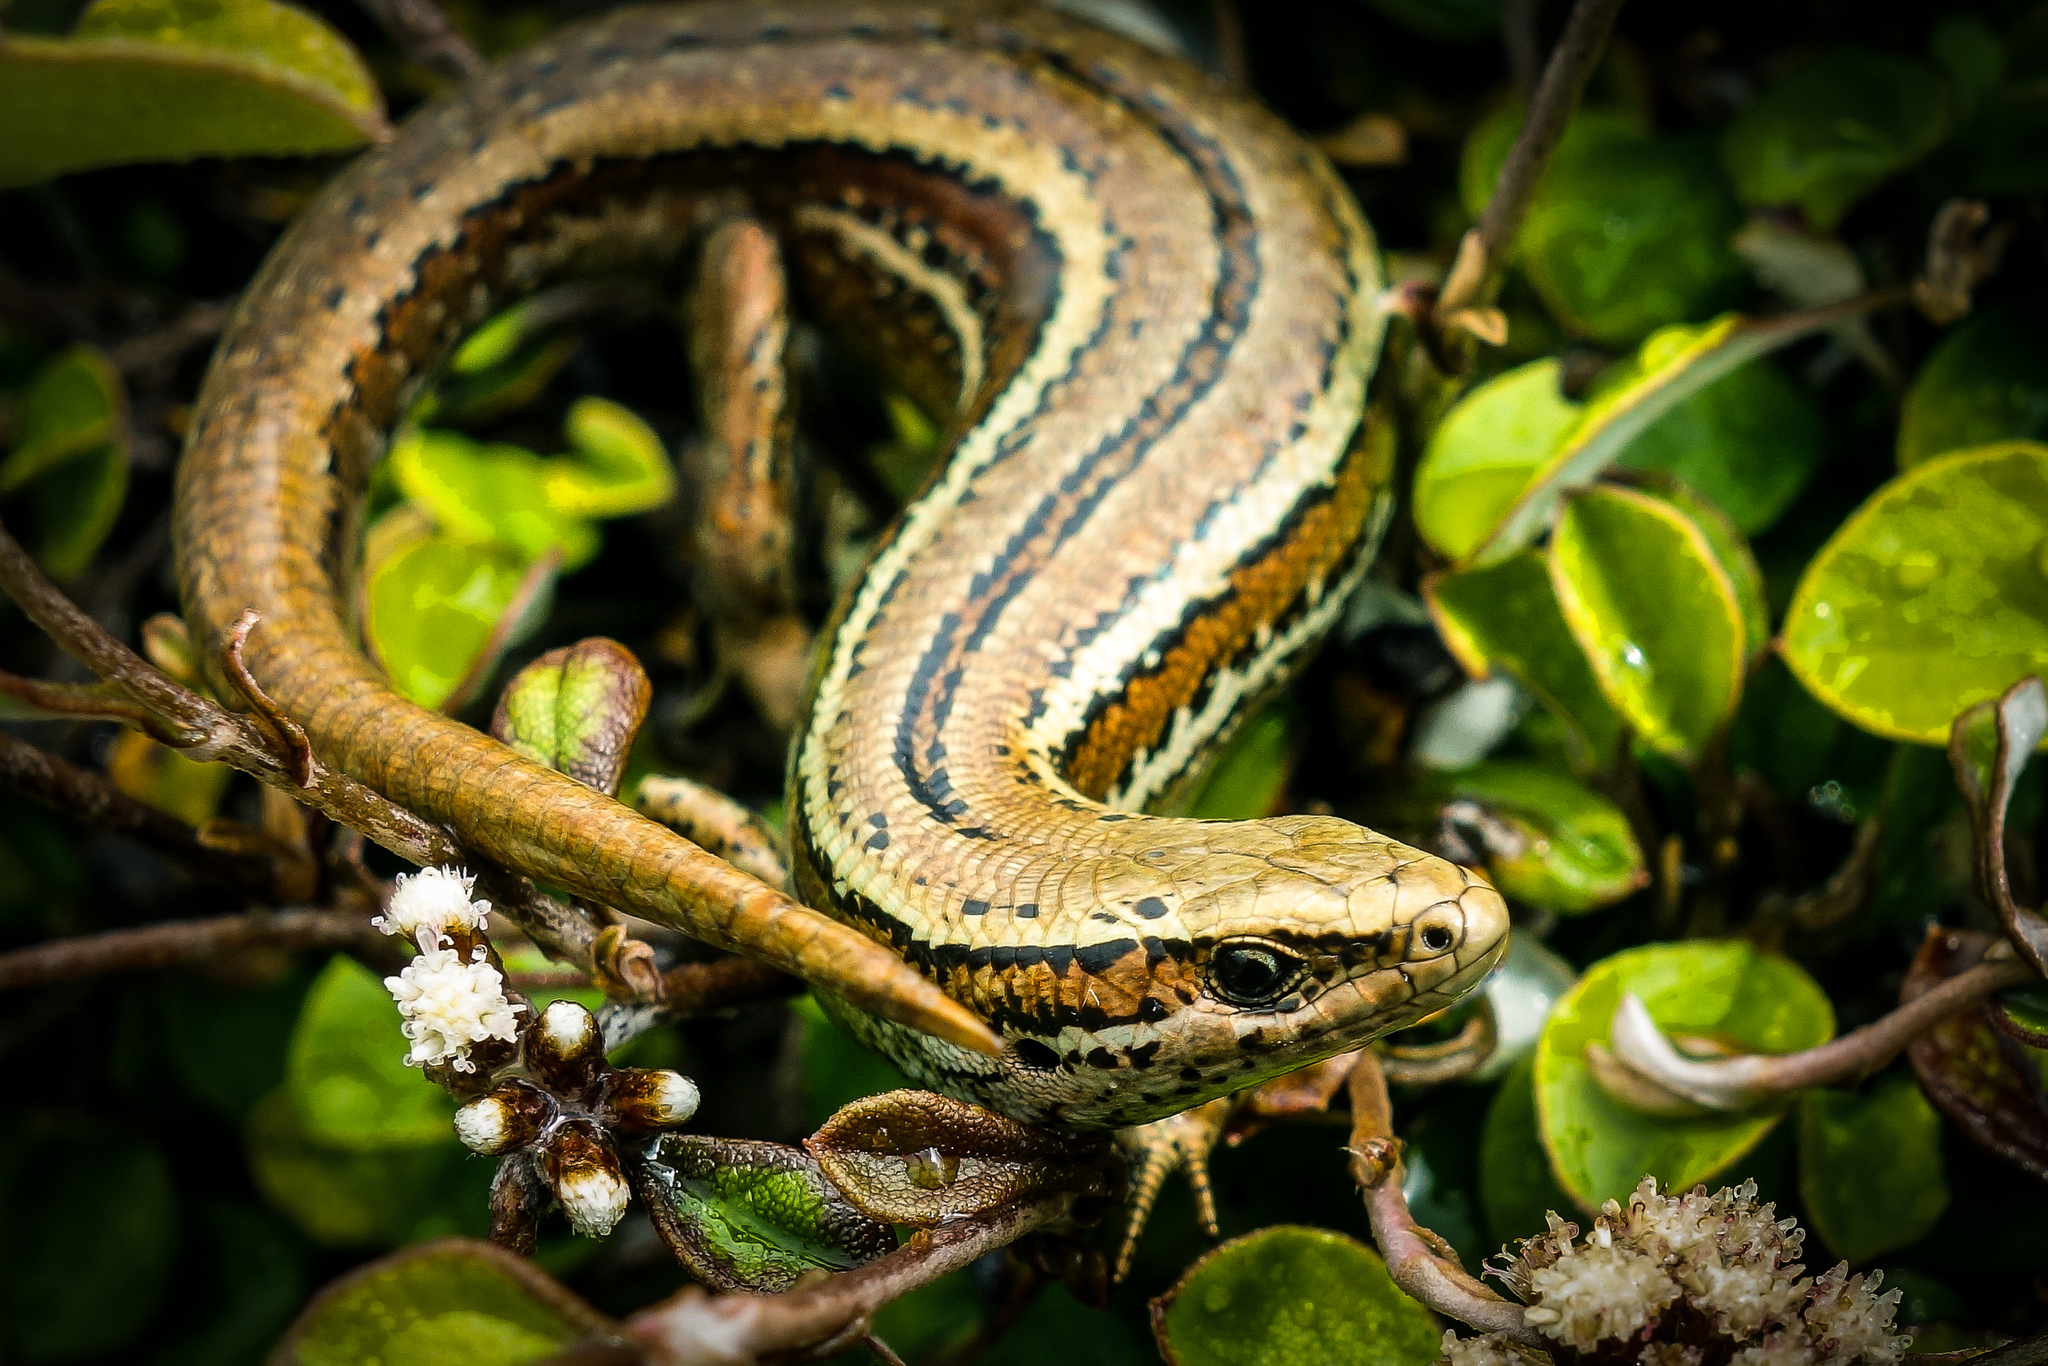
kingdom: Animalia
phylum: Chordata
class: Squamata
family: Scincidae
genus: Oligosoma
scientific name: Oligosoma inconspicuum
